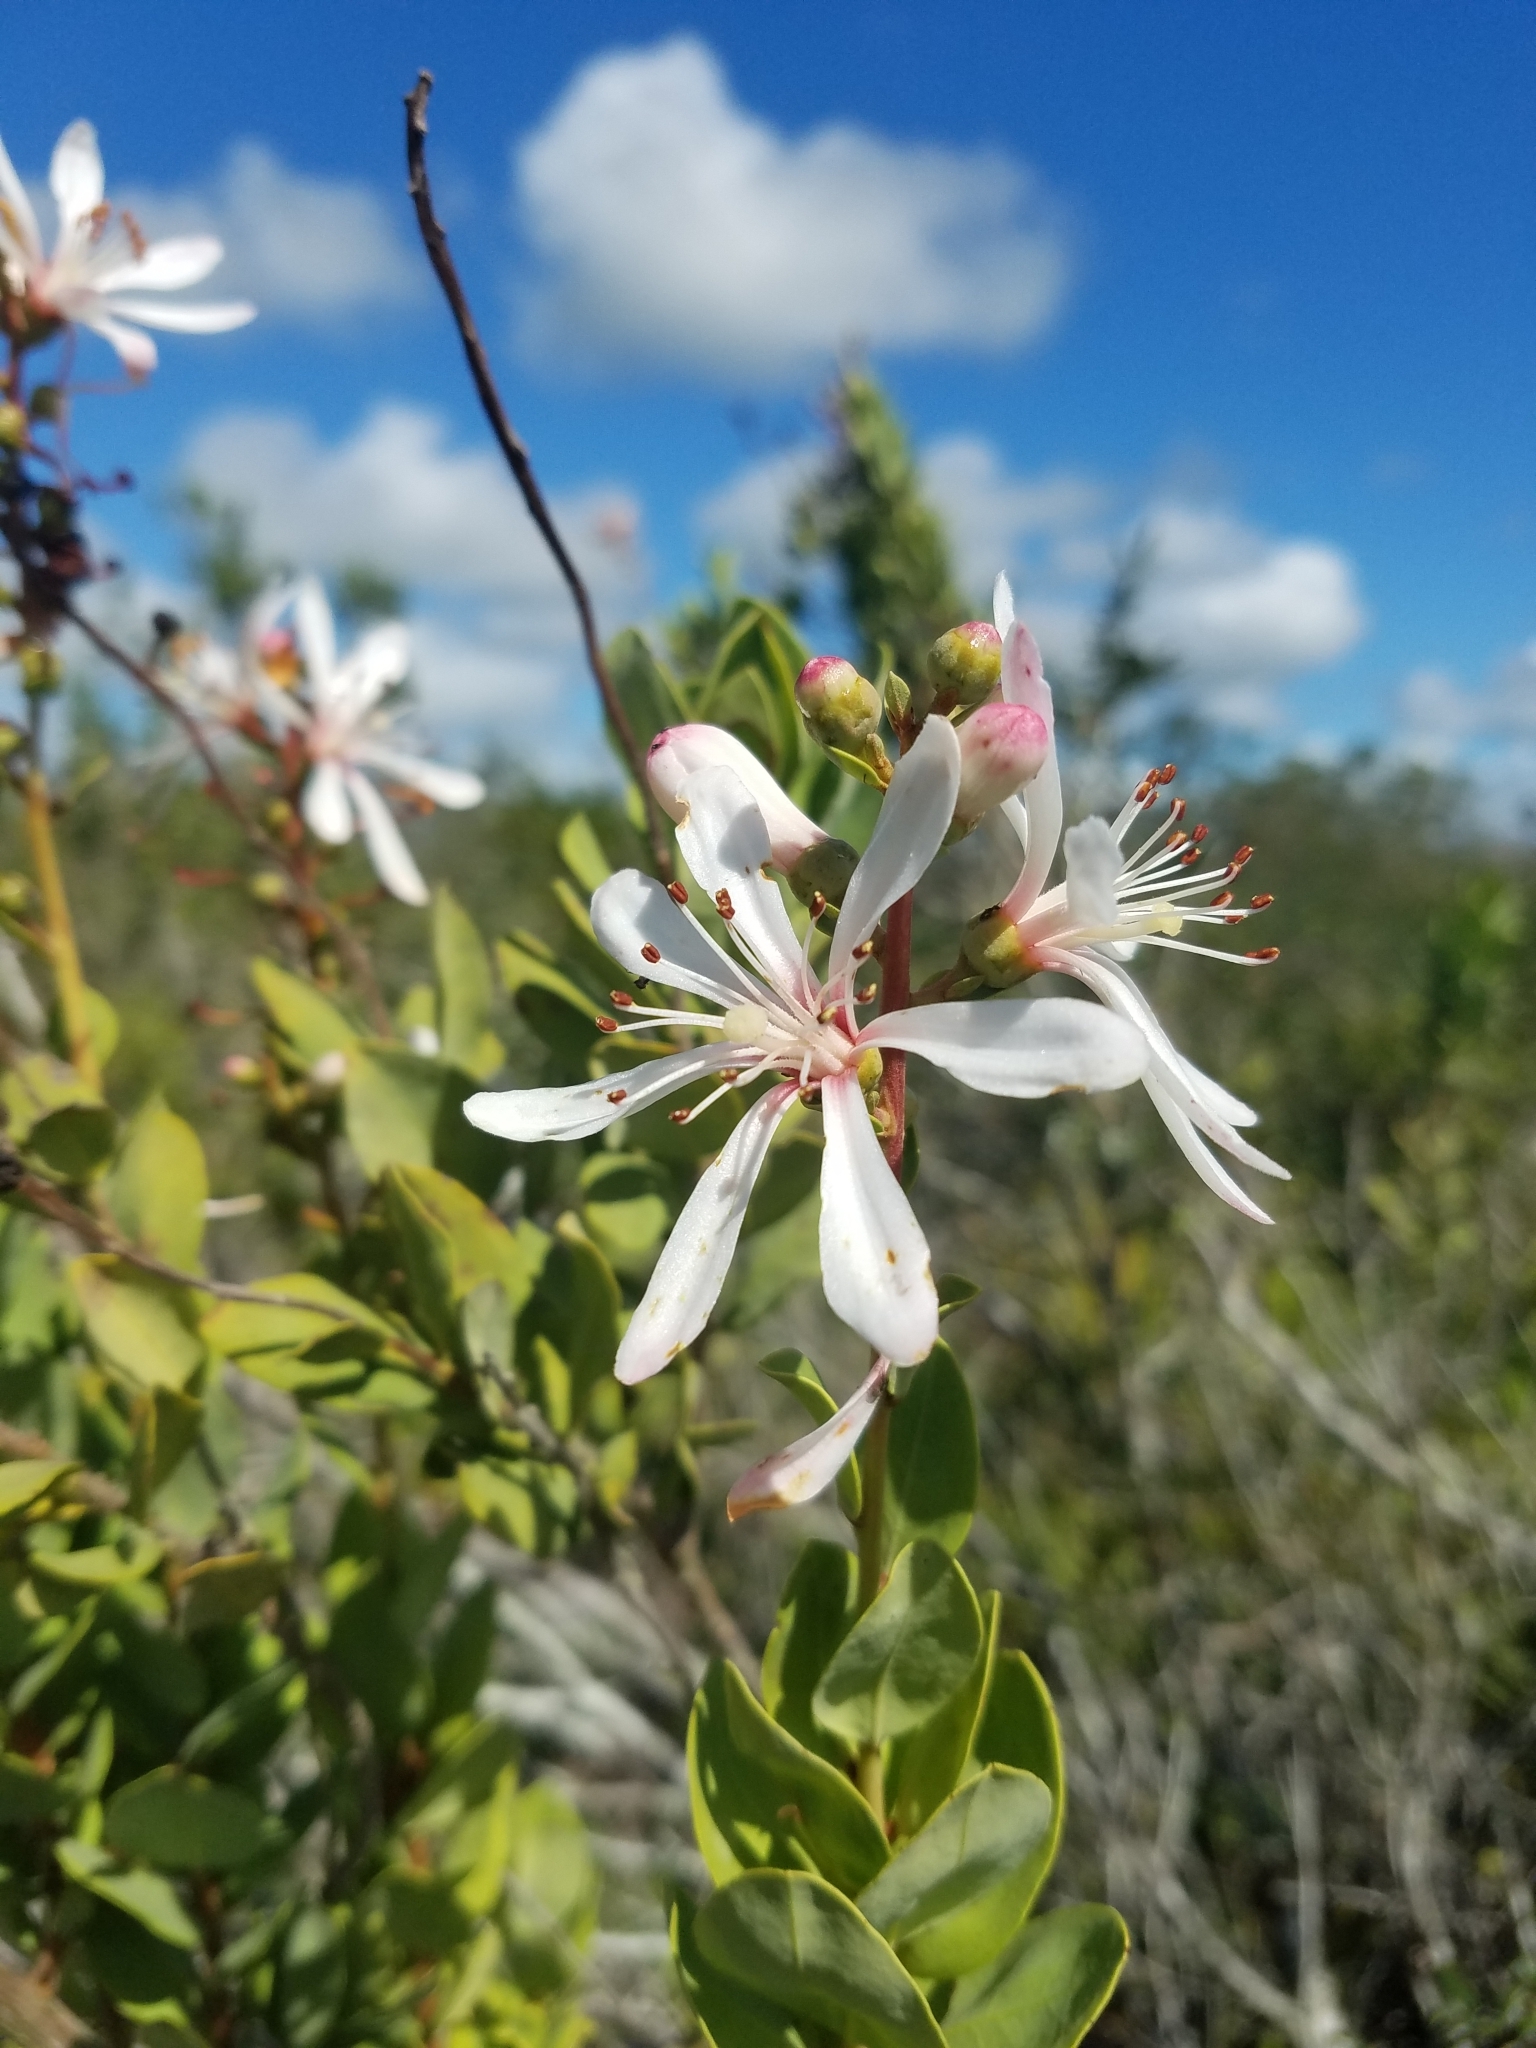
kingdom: Plantae
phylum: Tracheophyta
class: Magnoliopsida
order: Ericales
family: Ericaceae
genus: Bejaria
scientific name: Bejaria racemosa
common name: Tarflower
